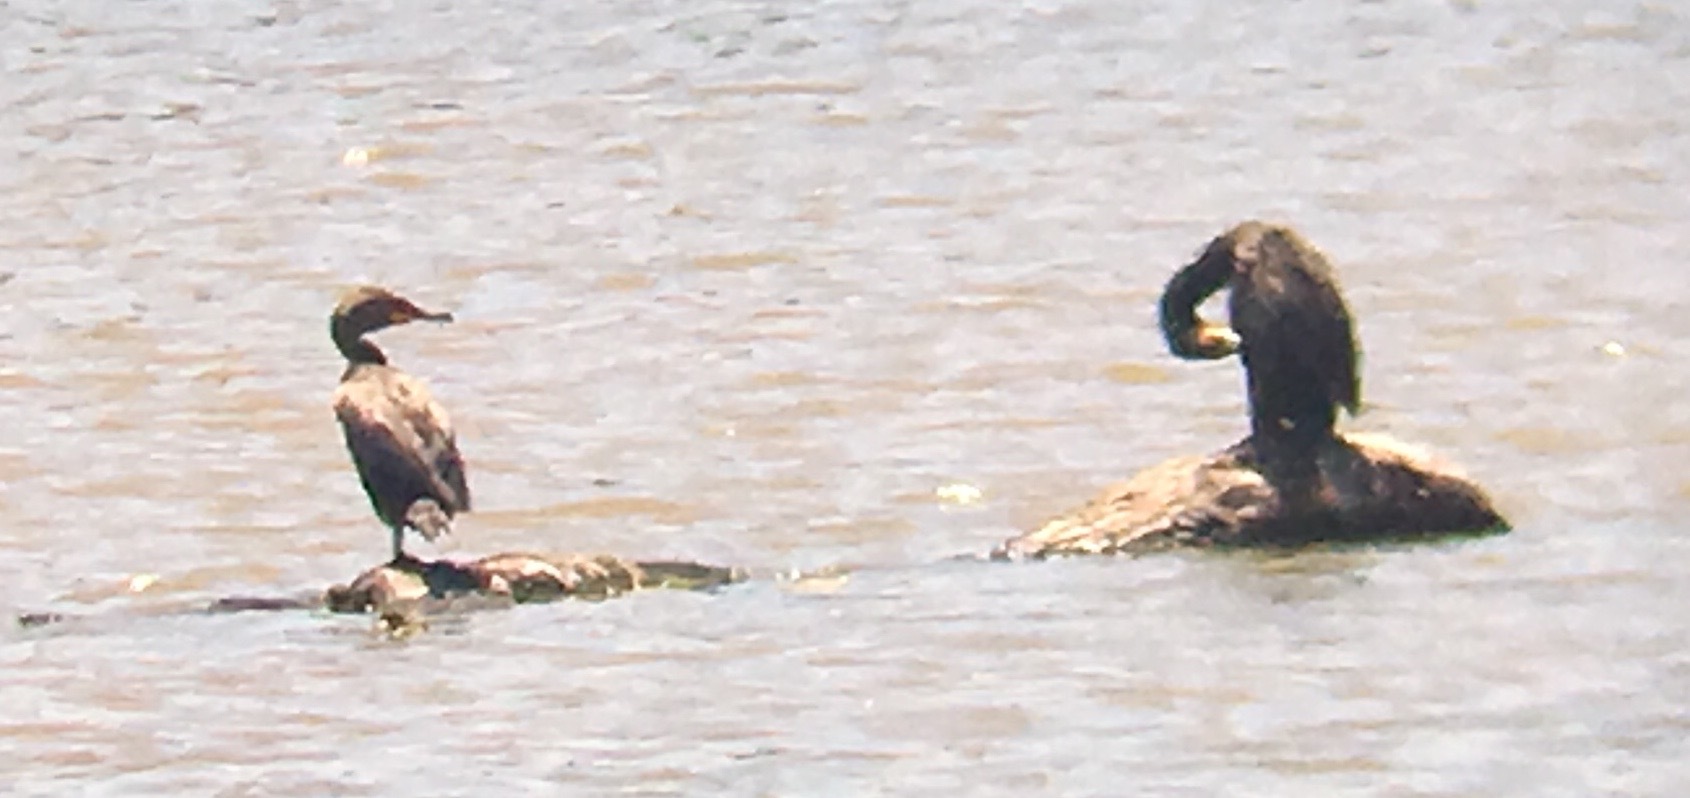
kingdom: Animalia
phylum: Chordata
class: Aves
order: Suliformes
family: Phalacrocoracidae
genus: Phalacrocorax
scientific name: Phalacrocorax brasilianus
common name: Neotropic cormorant
